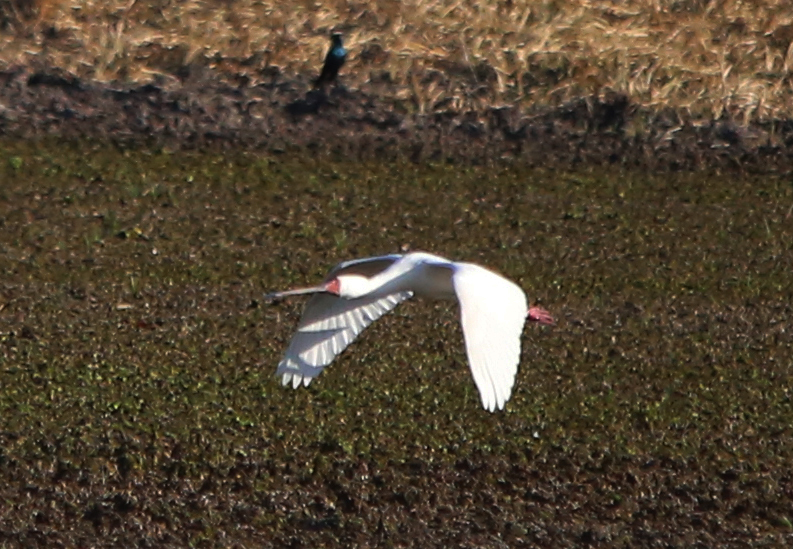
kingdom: Animalia
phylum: Chordata
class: Aves
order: Pelecaniformes
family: Threskiornithidae
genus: Platalea
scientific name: Platalea alba
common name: African spoonbill
